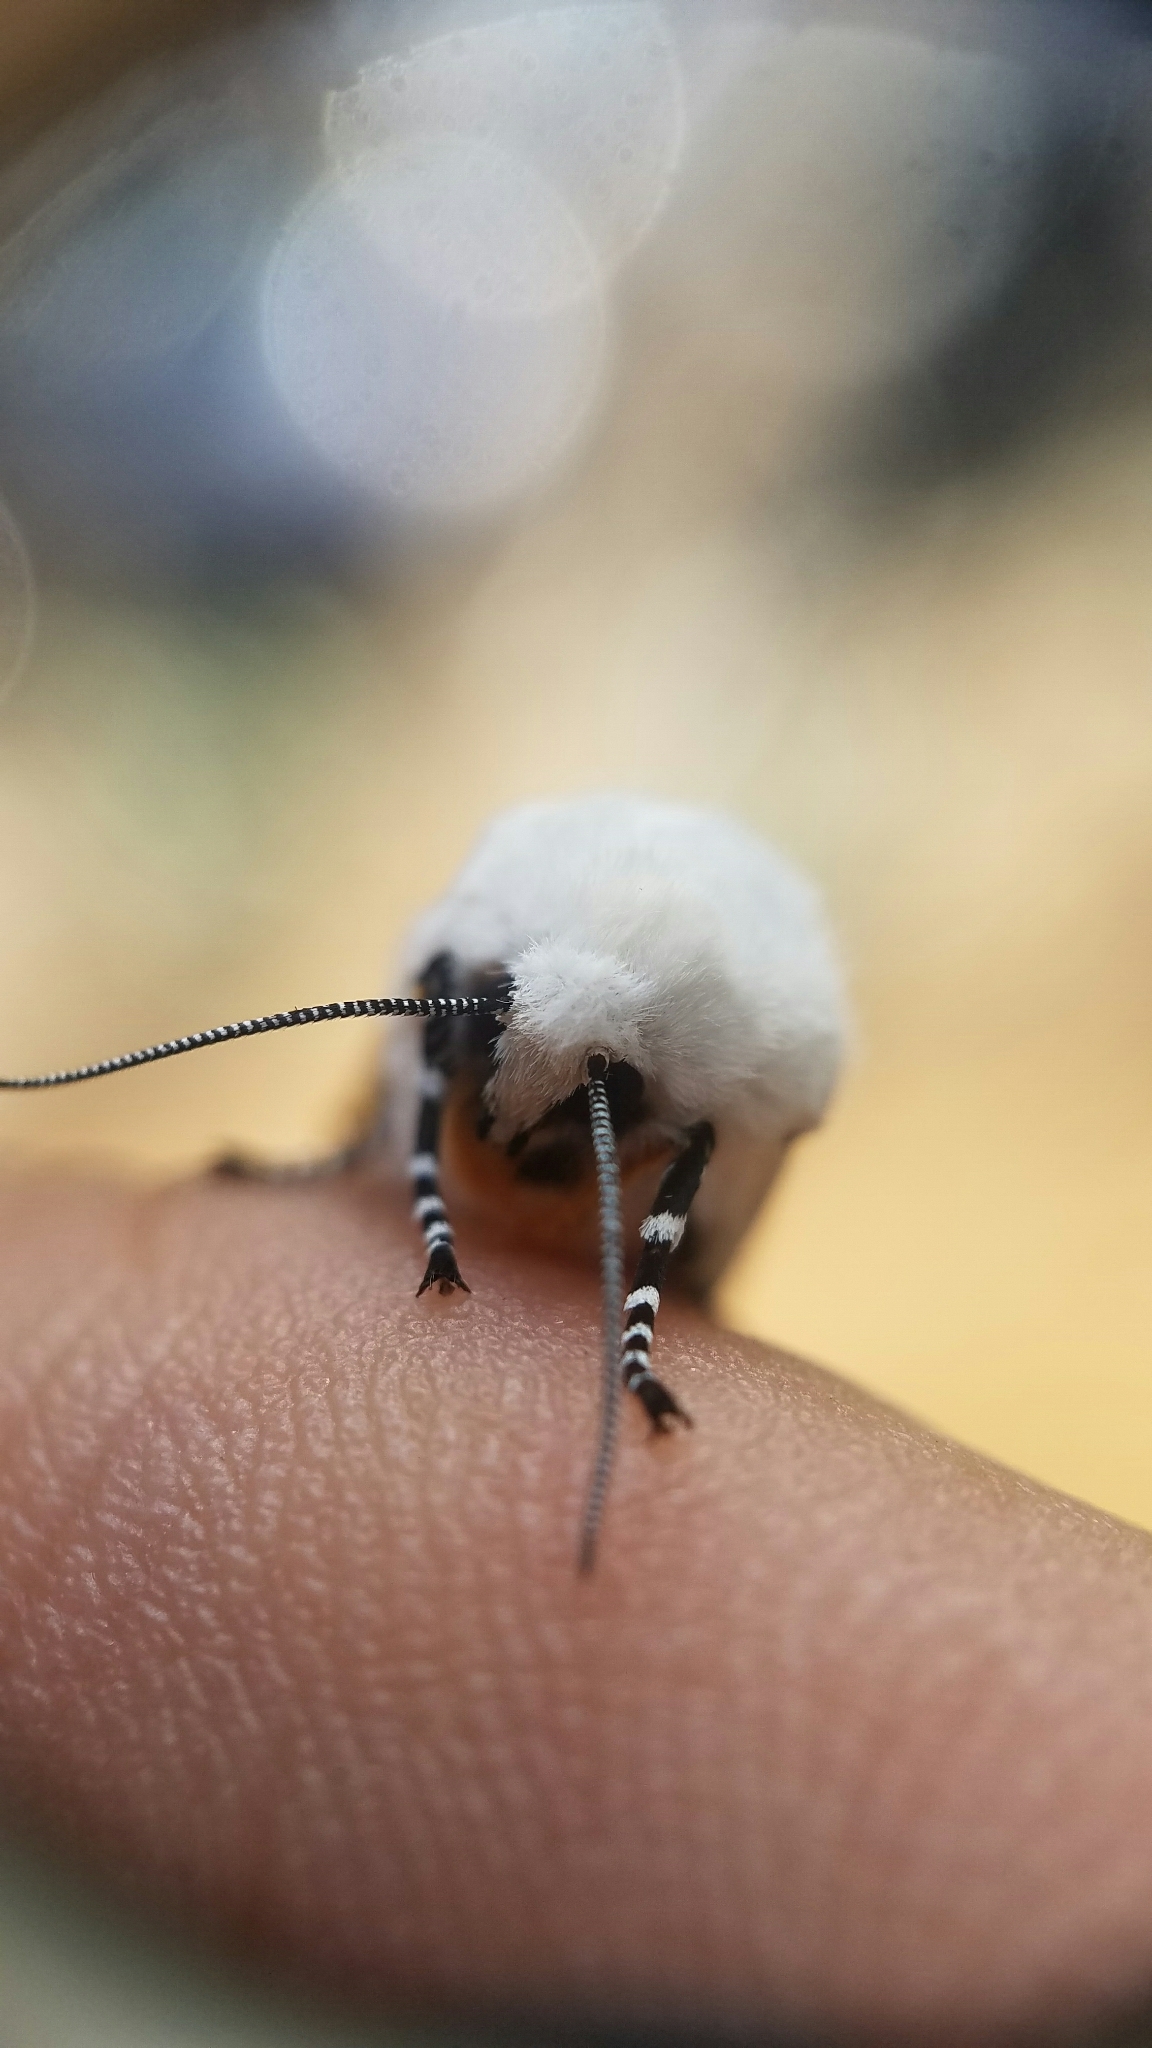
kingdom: Animalia
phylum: Arthropoda
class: Insecta
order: Lepidoptera
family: Erebidae
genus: Estigmene
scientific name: Estigmene acrea
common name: Salt marsh moth
